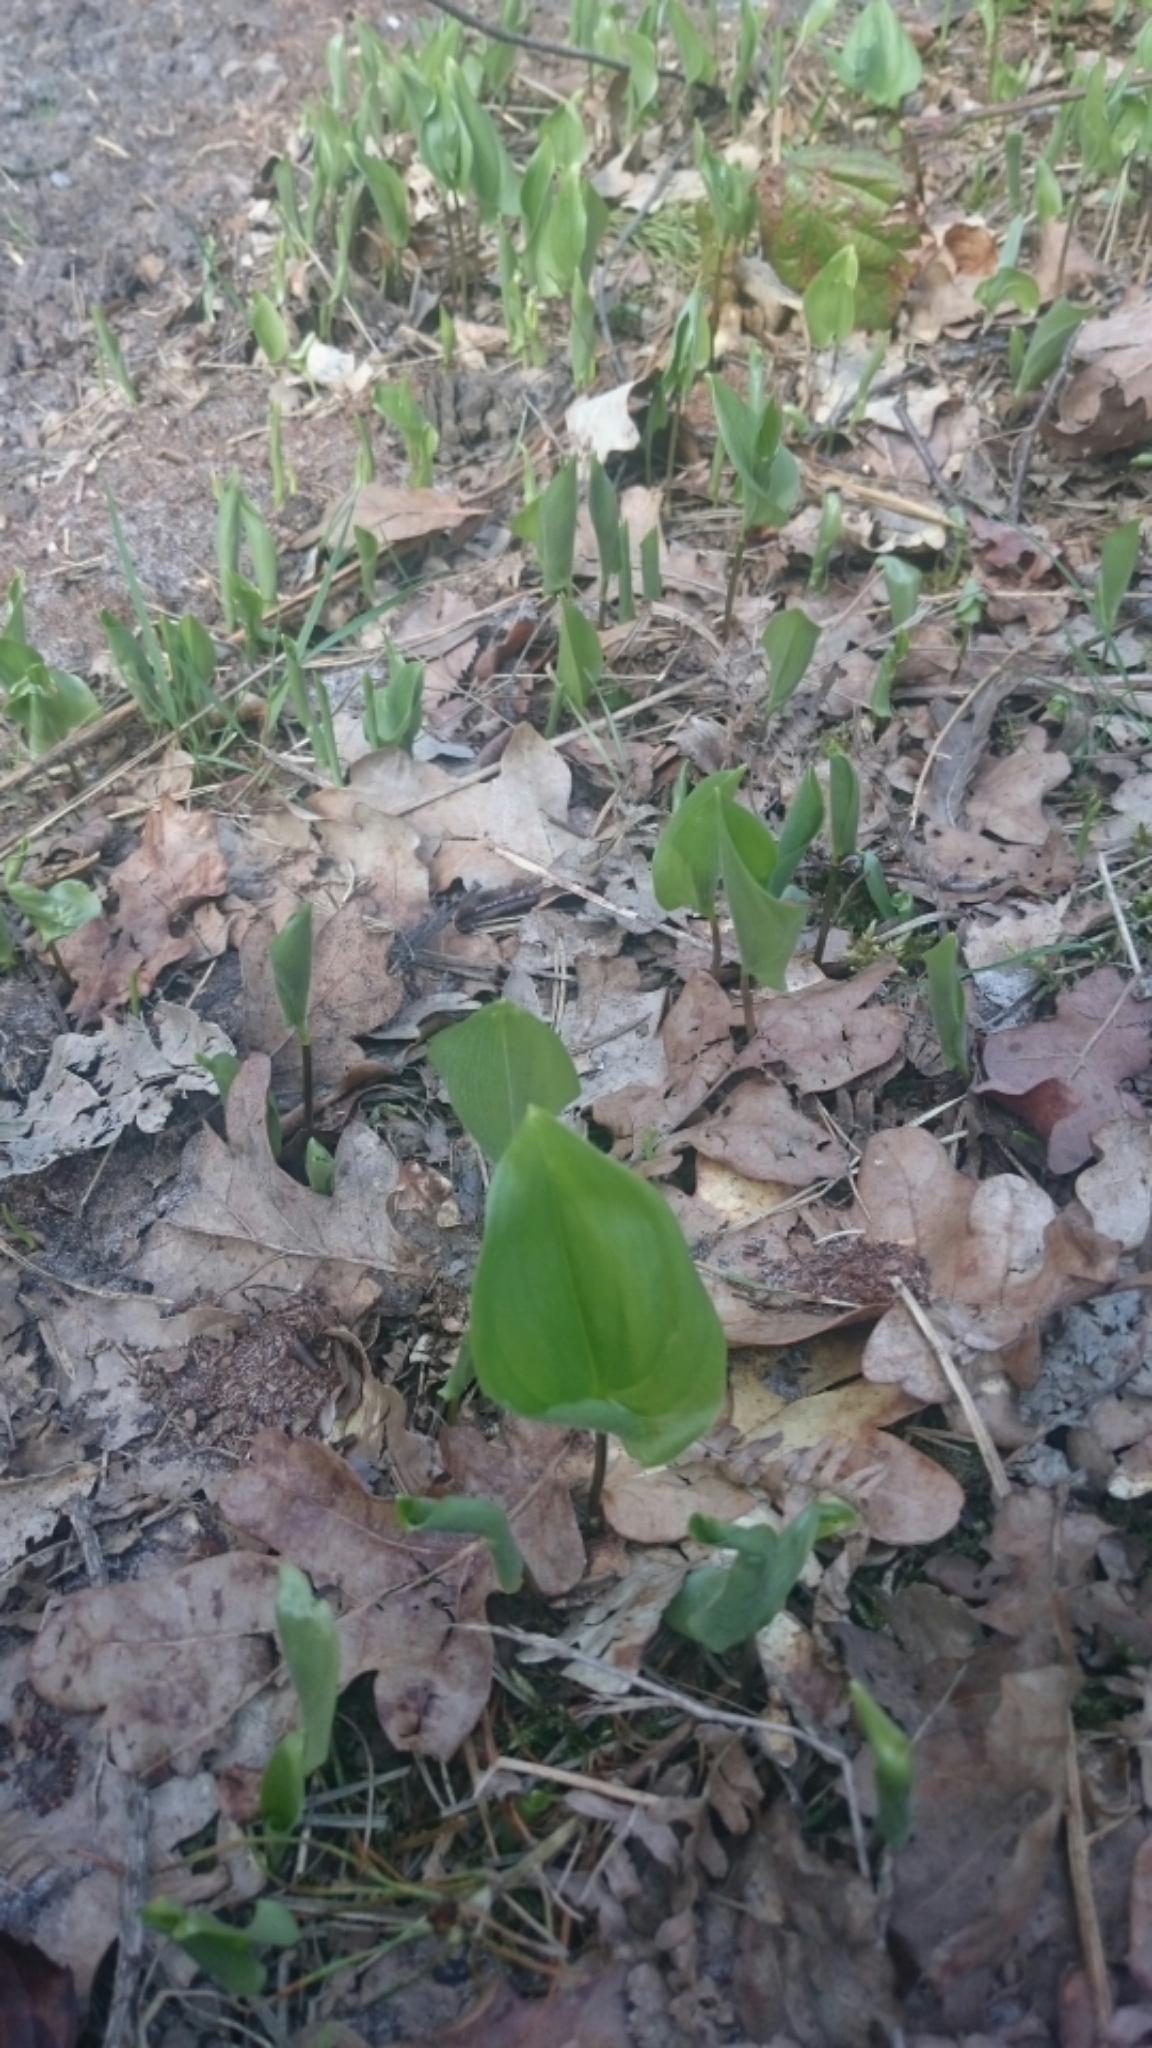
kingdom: Plantae
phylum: Tracheophyta
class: Liliopsida
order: Asparagales
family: Asparagaceae
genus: Maianthemum
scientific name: Maianthemum bifolium
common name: May lily
